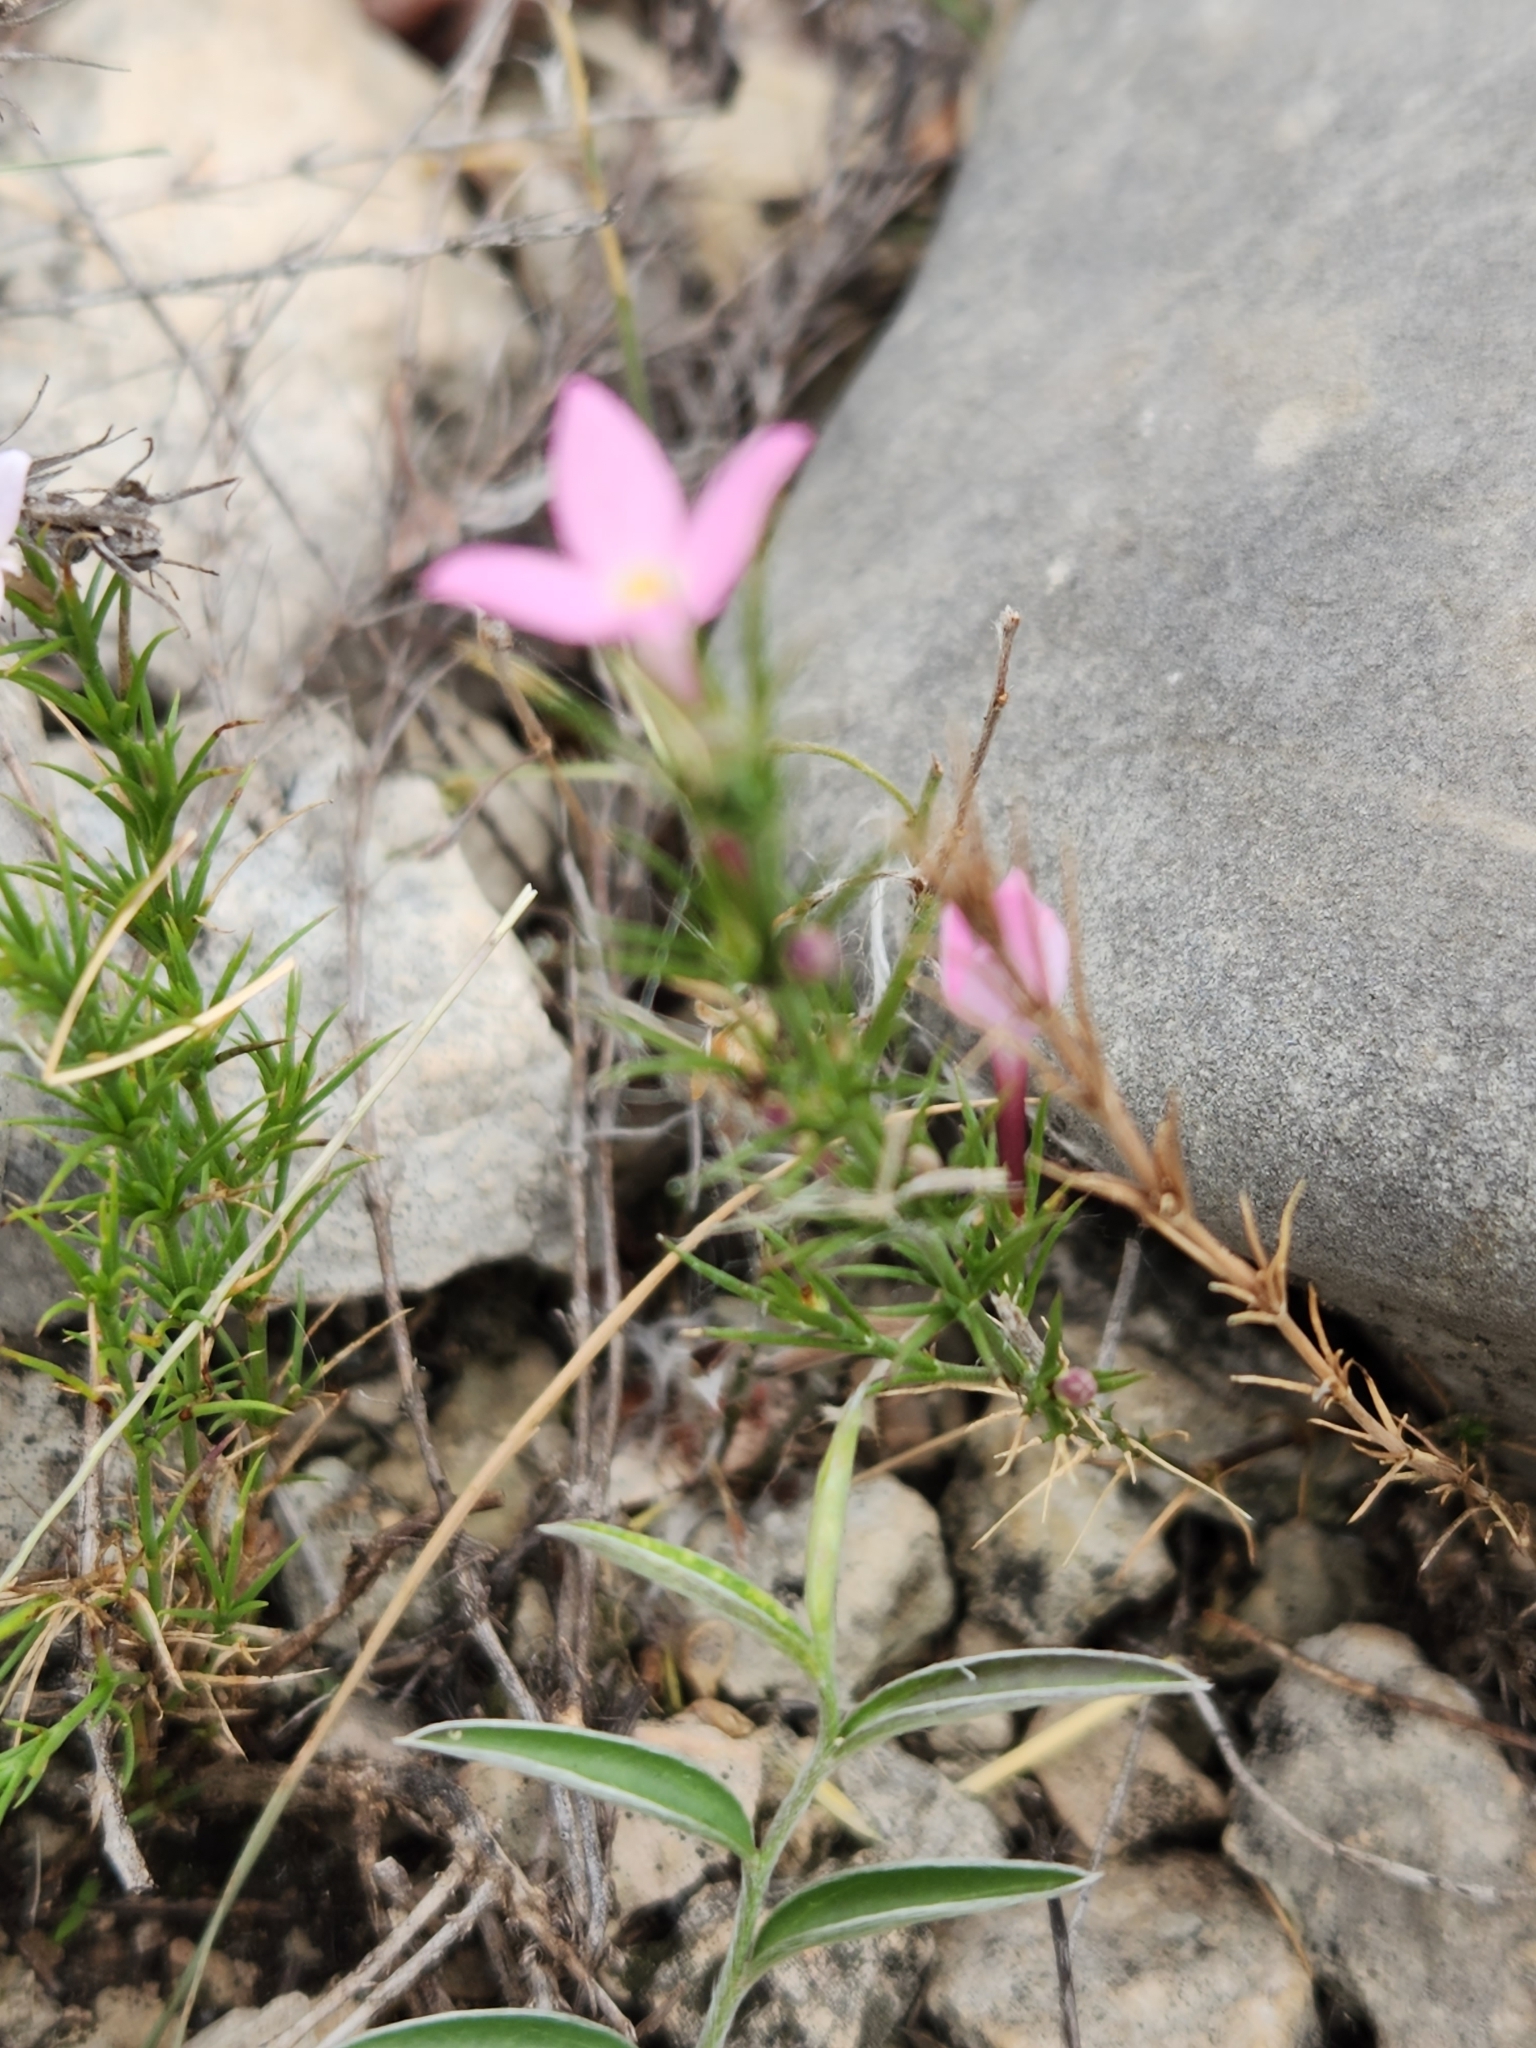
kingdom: Plantae
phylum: Tracheophyta
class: Magnoliopsida
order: Gentianales
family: Rubiaceae
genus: Houstonia
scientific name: Houstonia acerosa
